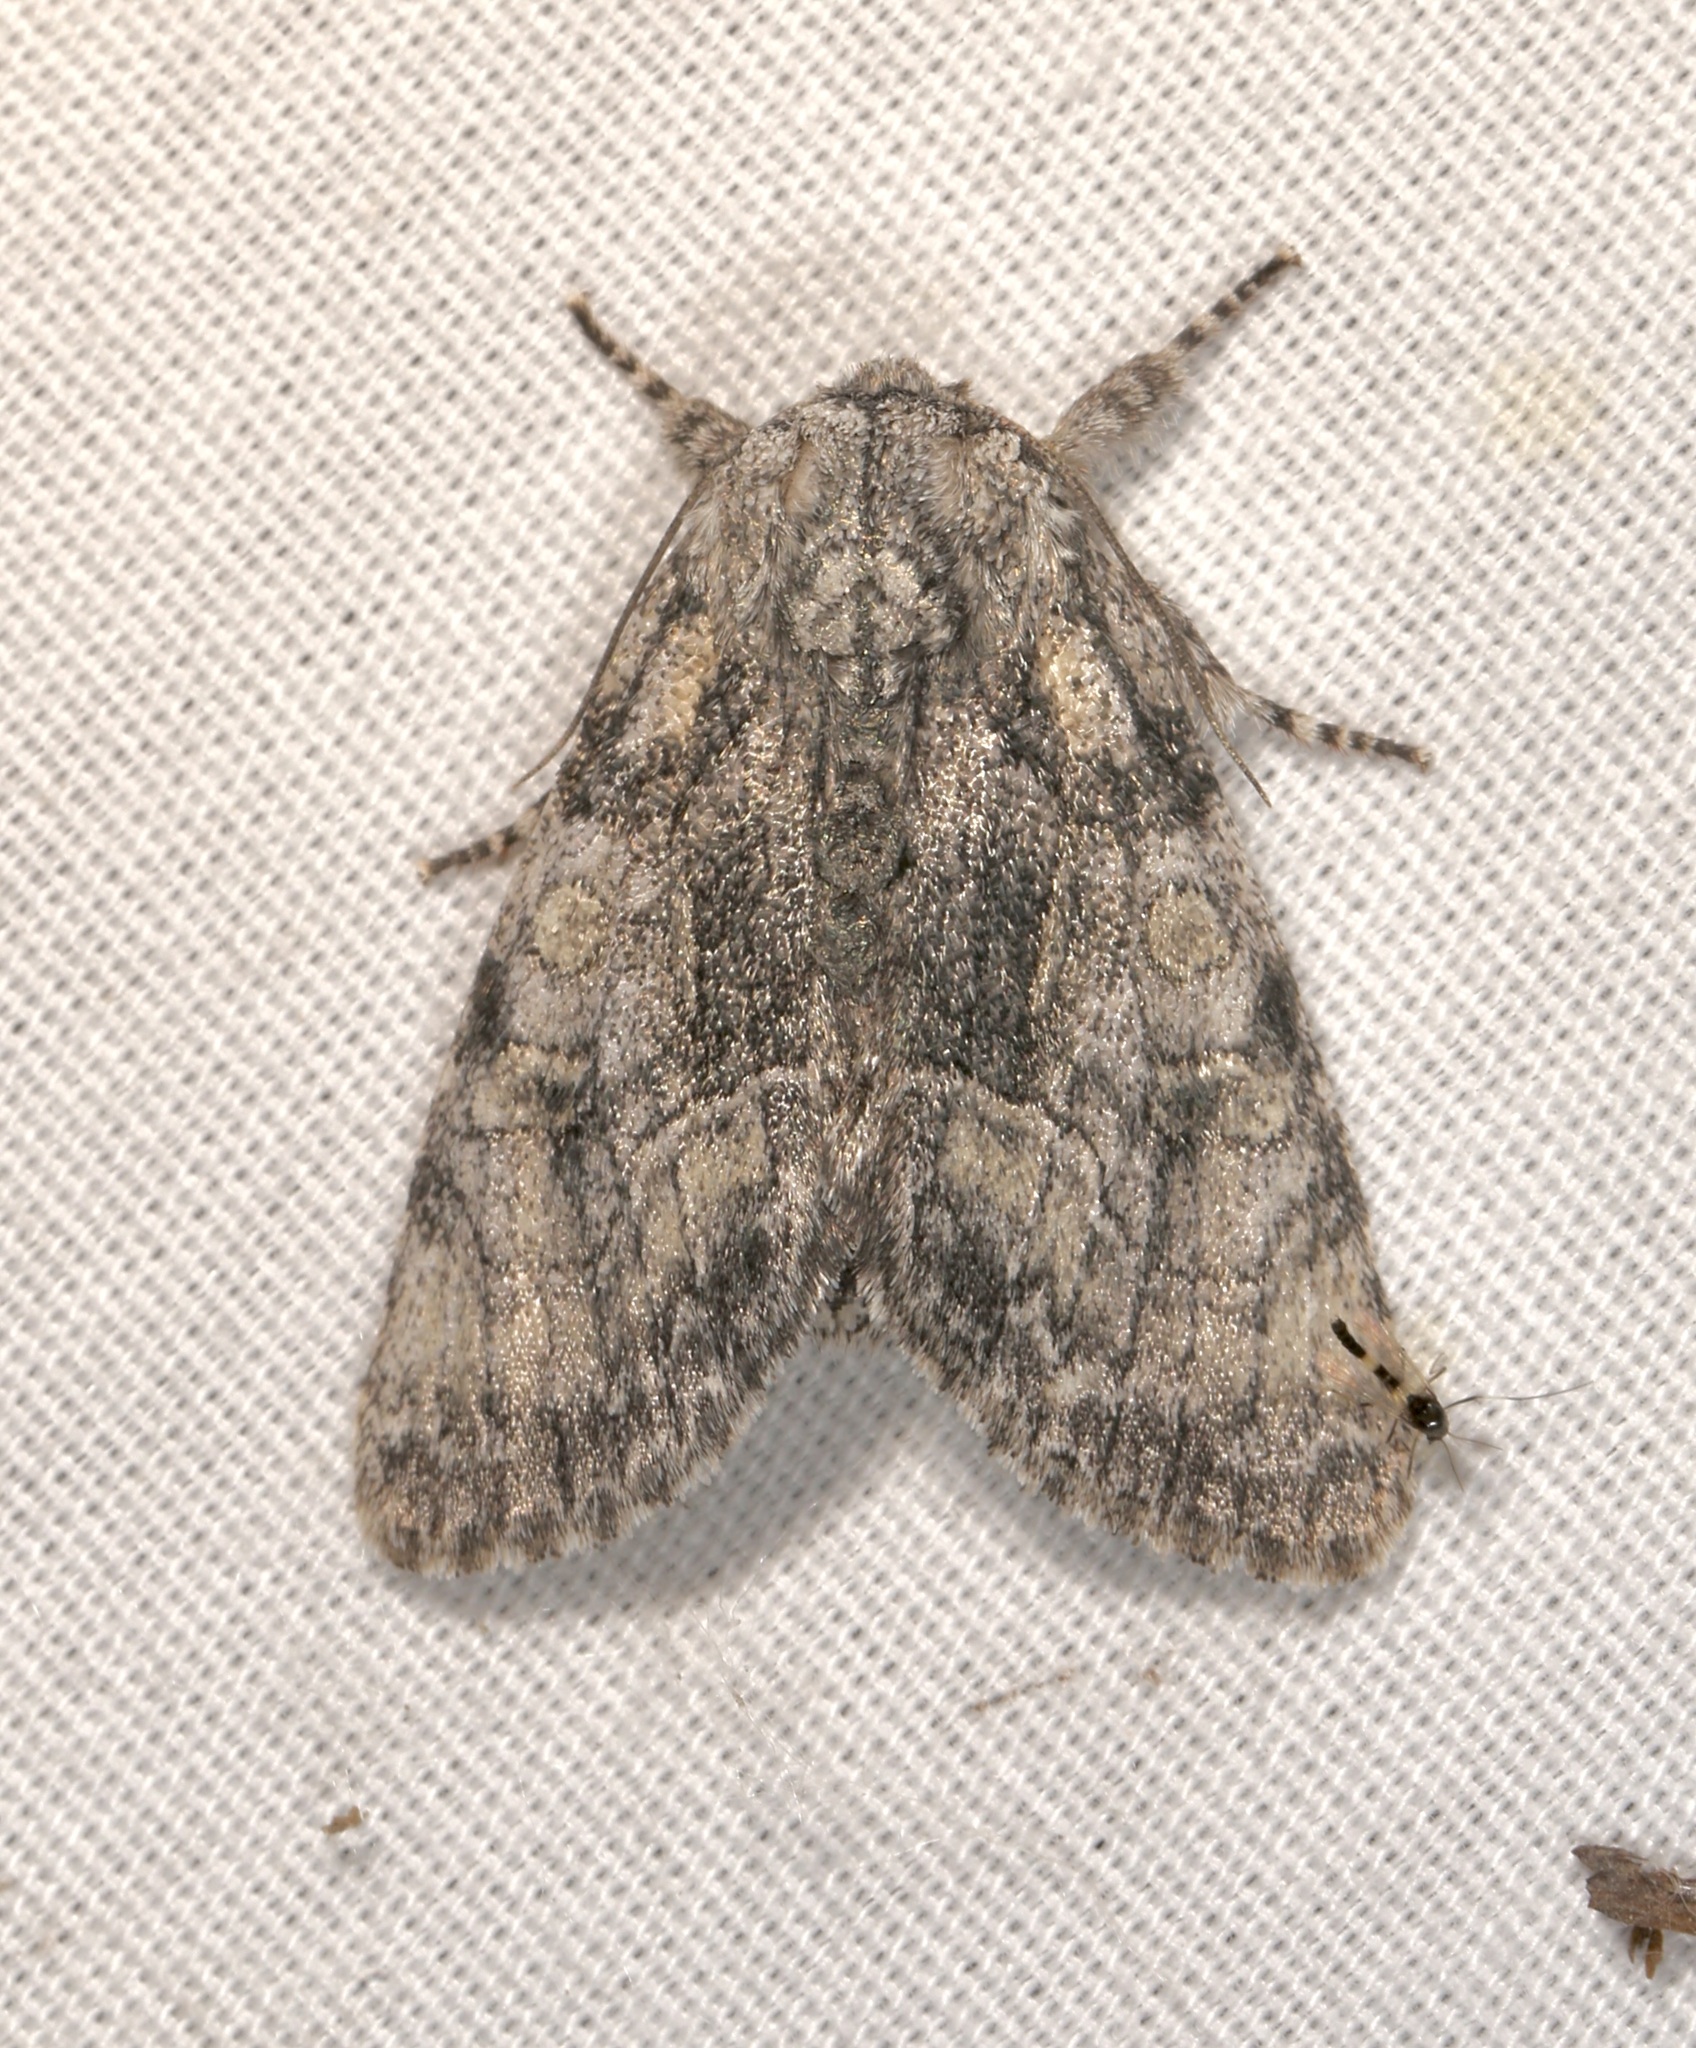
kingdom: Animalia
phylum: Arthropoda
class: Insecta
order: Lepidoptera
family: Noctuidae
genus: Raphia
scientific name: Raphia frater
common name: Brother
